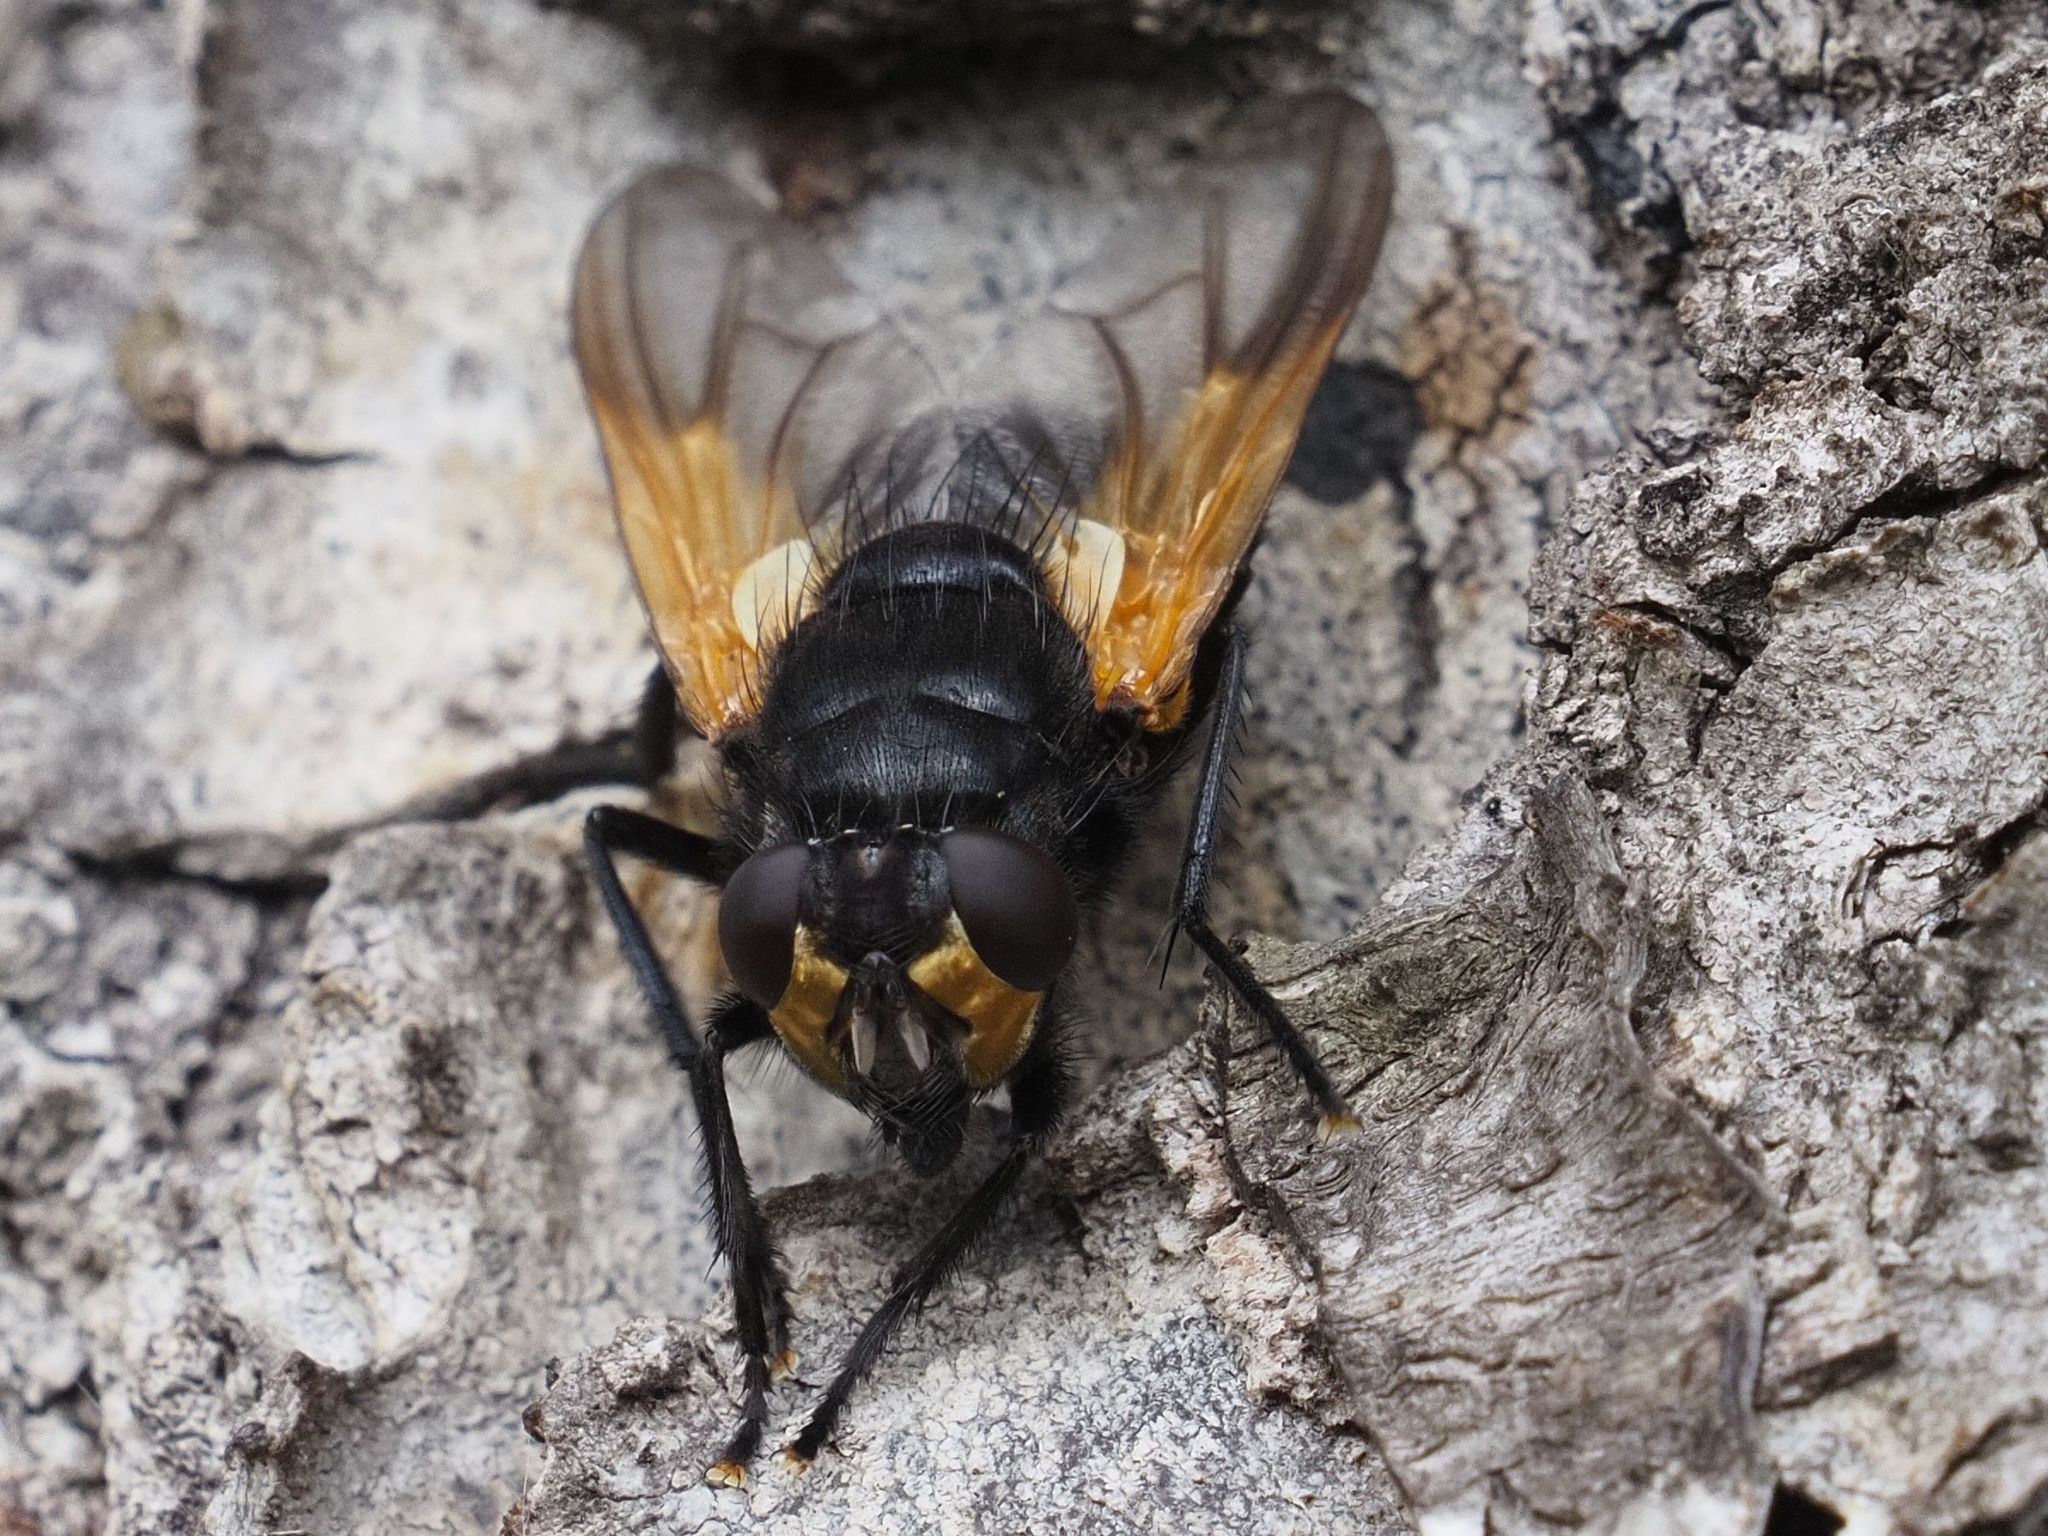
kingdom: Animalia
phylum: Arthropoda
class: Insecta
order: Diptera
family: Muscidae
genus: Mesembrina
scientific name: Mesembrina meridiana
